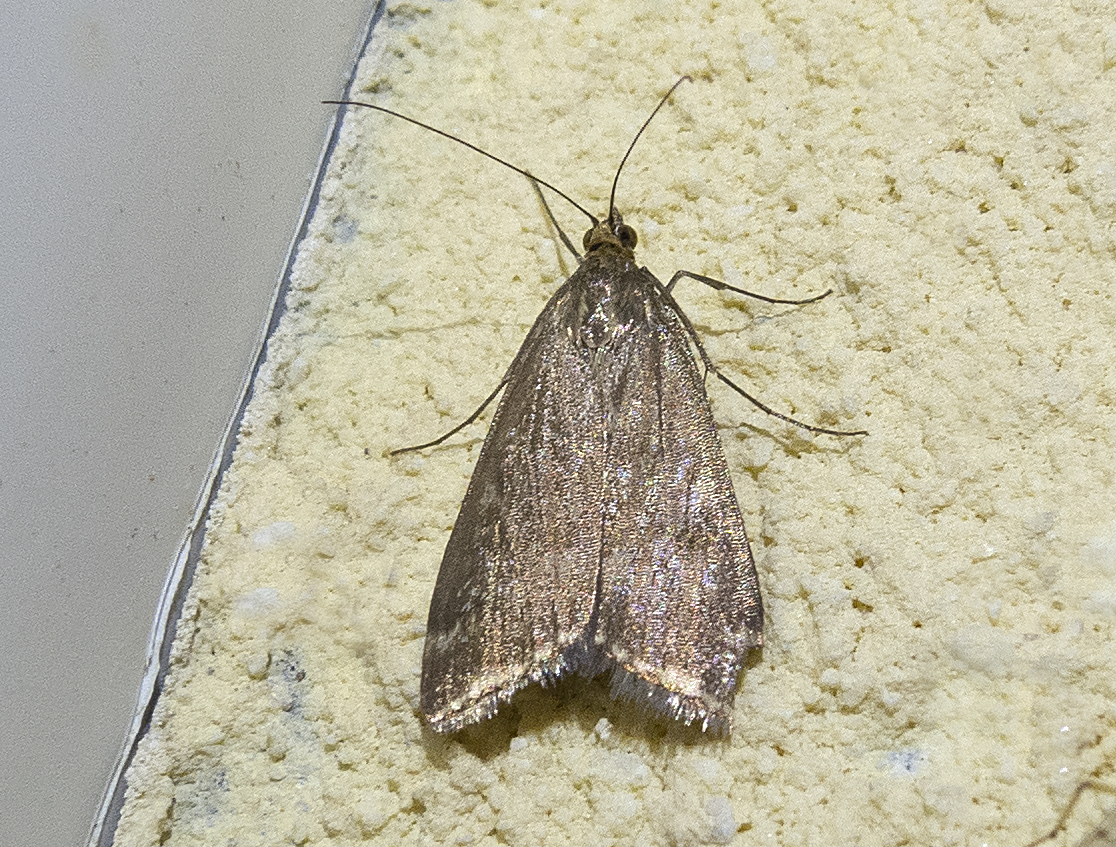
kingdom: Animalia
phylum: Arthropoda
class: Insecta
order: Lepidoptera
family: Crambidae
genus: Loxostege
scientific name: Loxostege sticticalis
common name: Crambid moth
